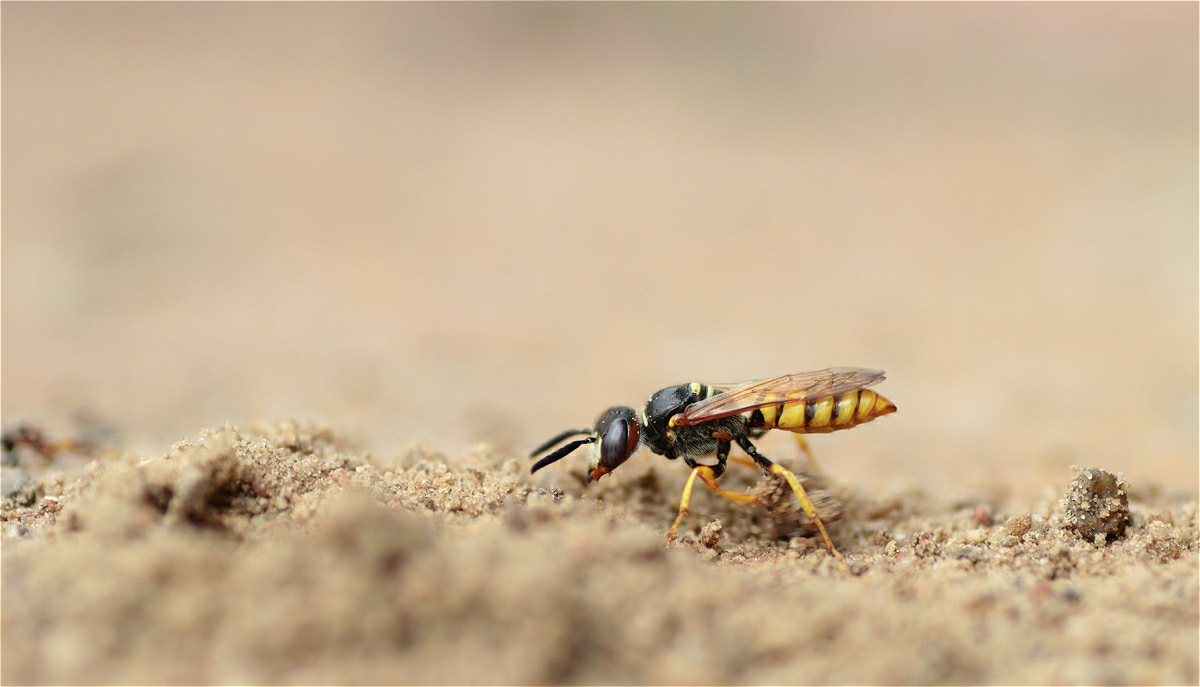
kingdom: Animalia
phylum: Arthropoda
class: Insecta
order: Hymenoptera
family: Crabronidae
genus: Philanthus
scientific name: Philanthus triangulum
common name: Bee wolf
